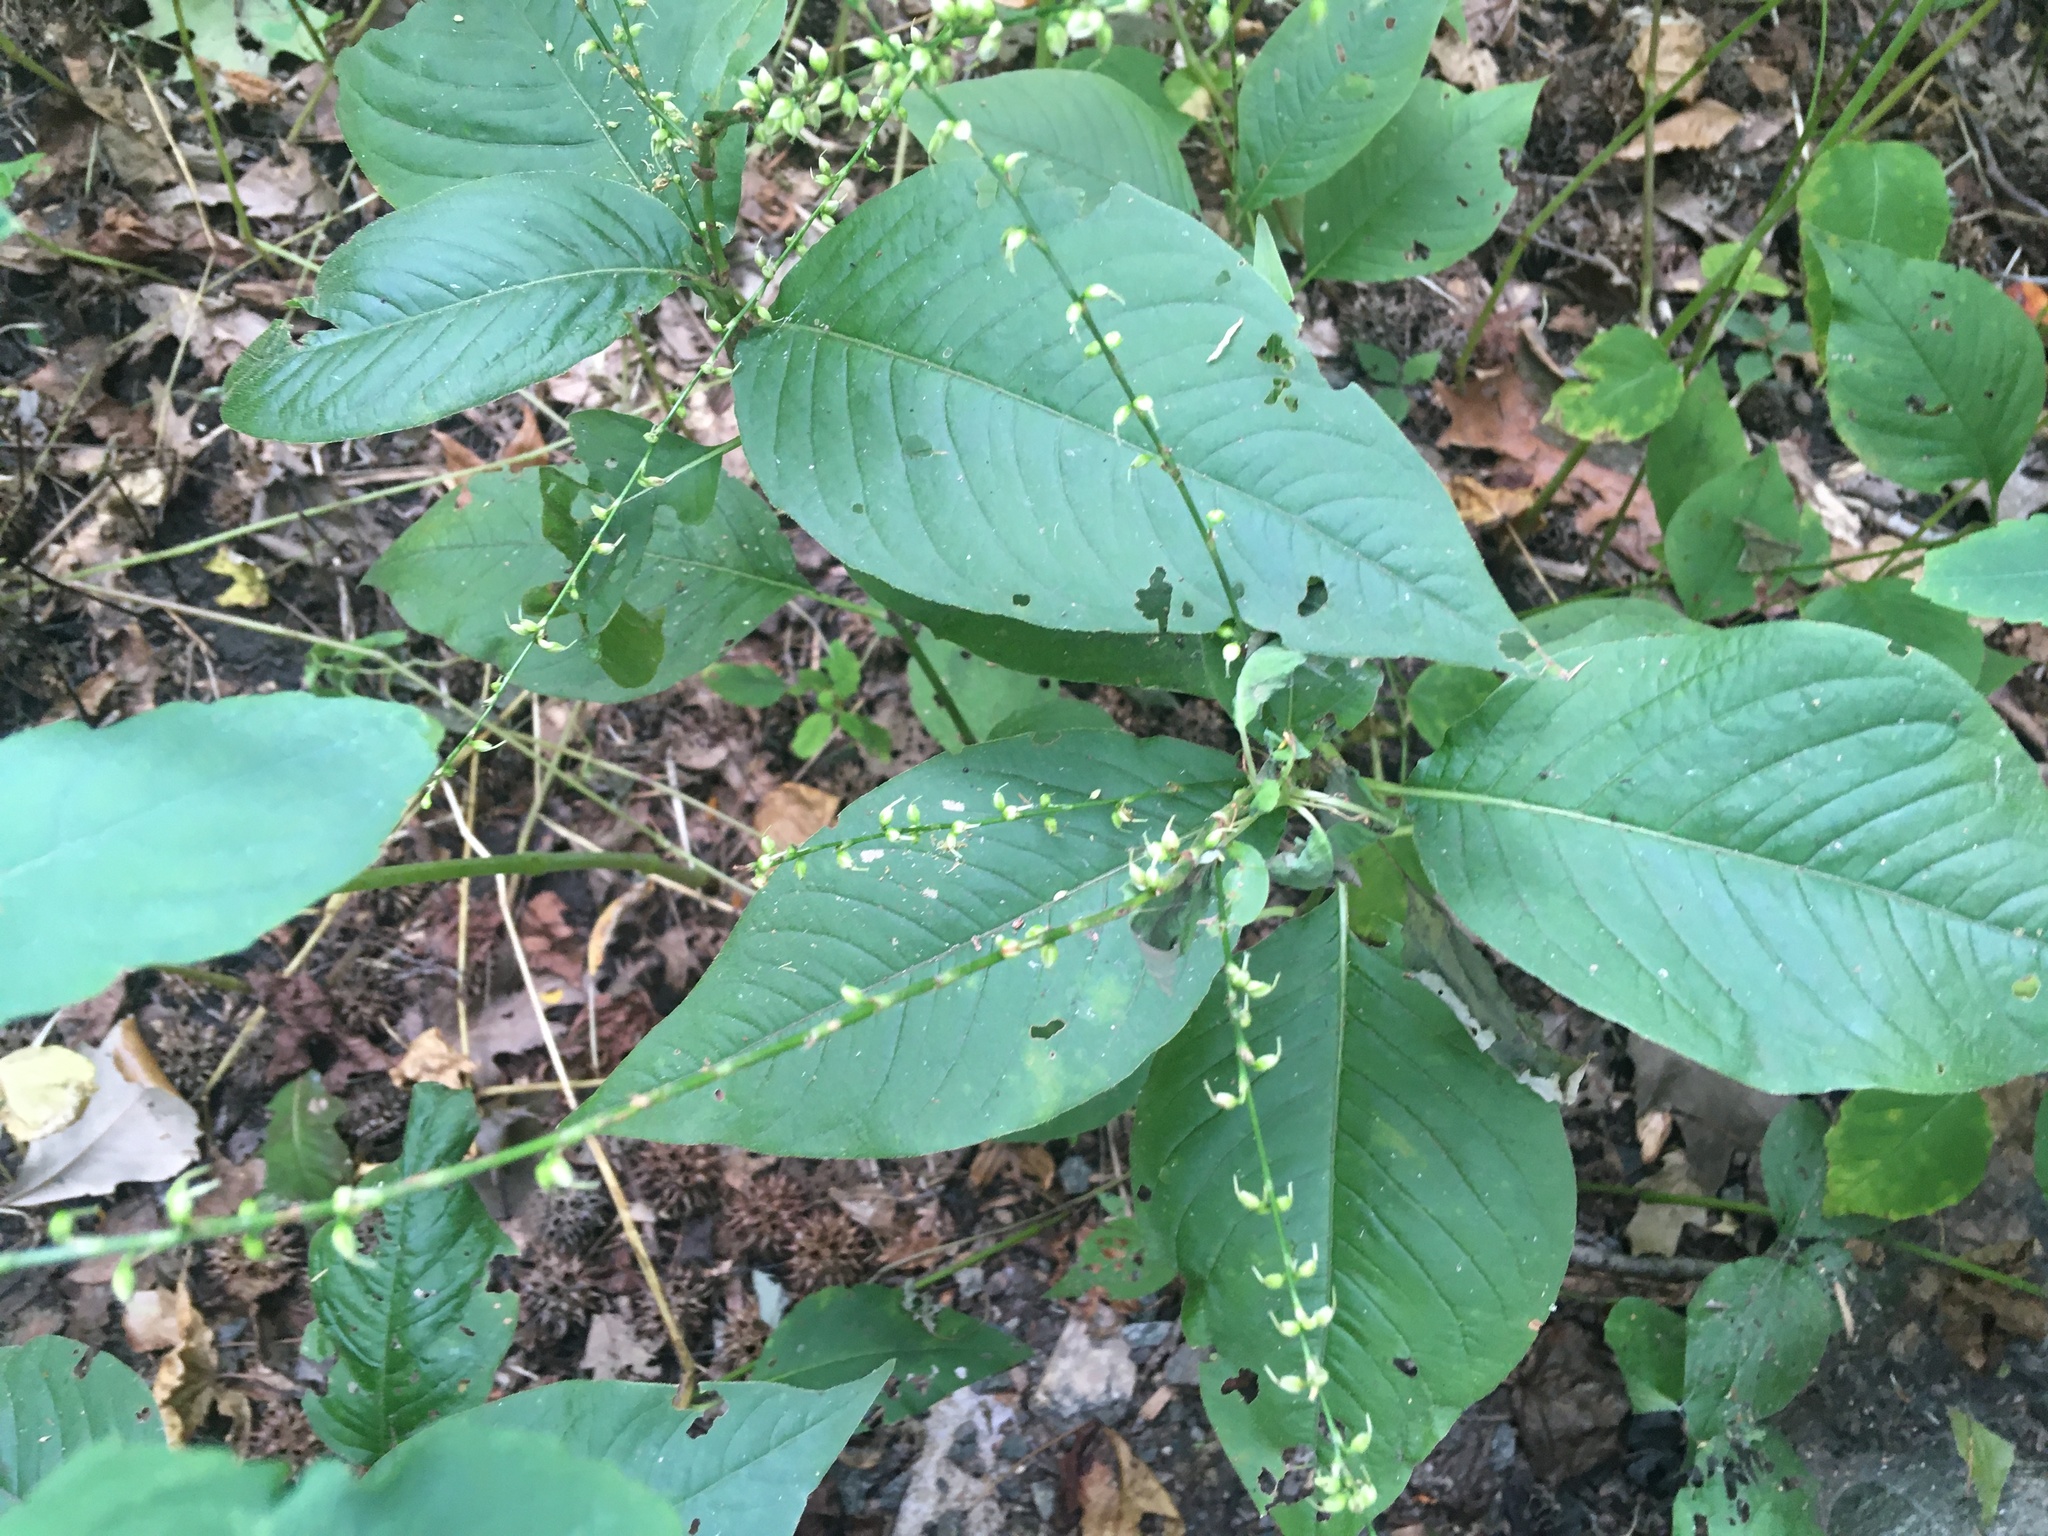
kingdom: Plantae
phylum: Tracheophyta
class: Magnoliopsida
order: Caryophyllales
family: Polygonaceae
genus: Persicaria
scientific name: Persicaria virginiana
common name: Jumpseed
